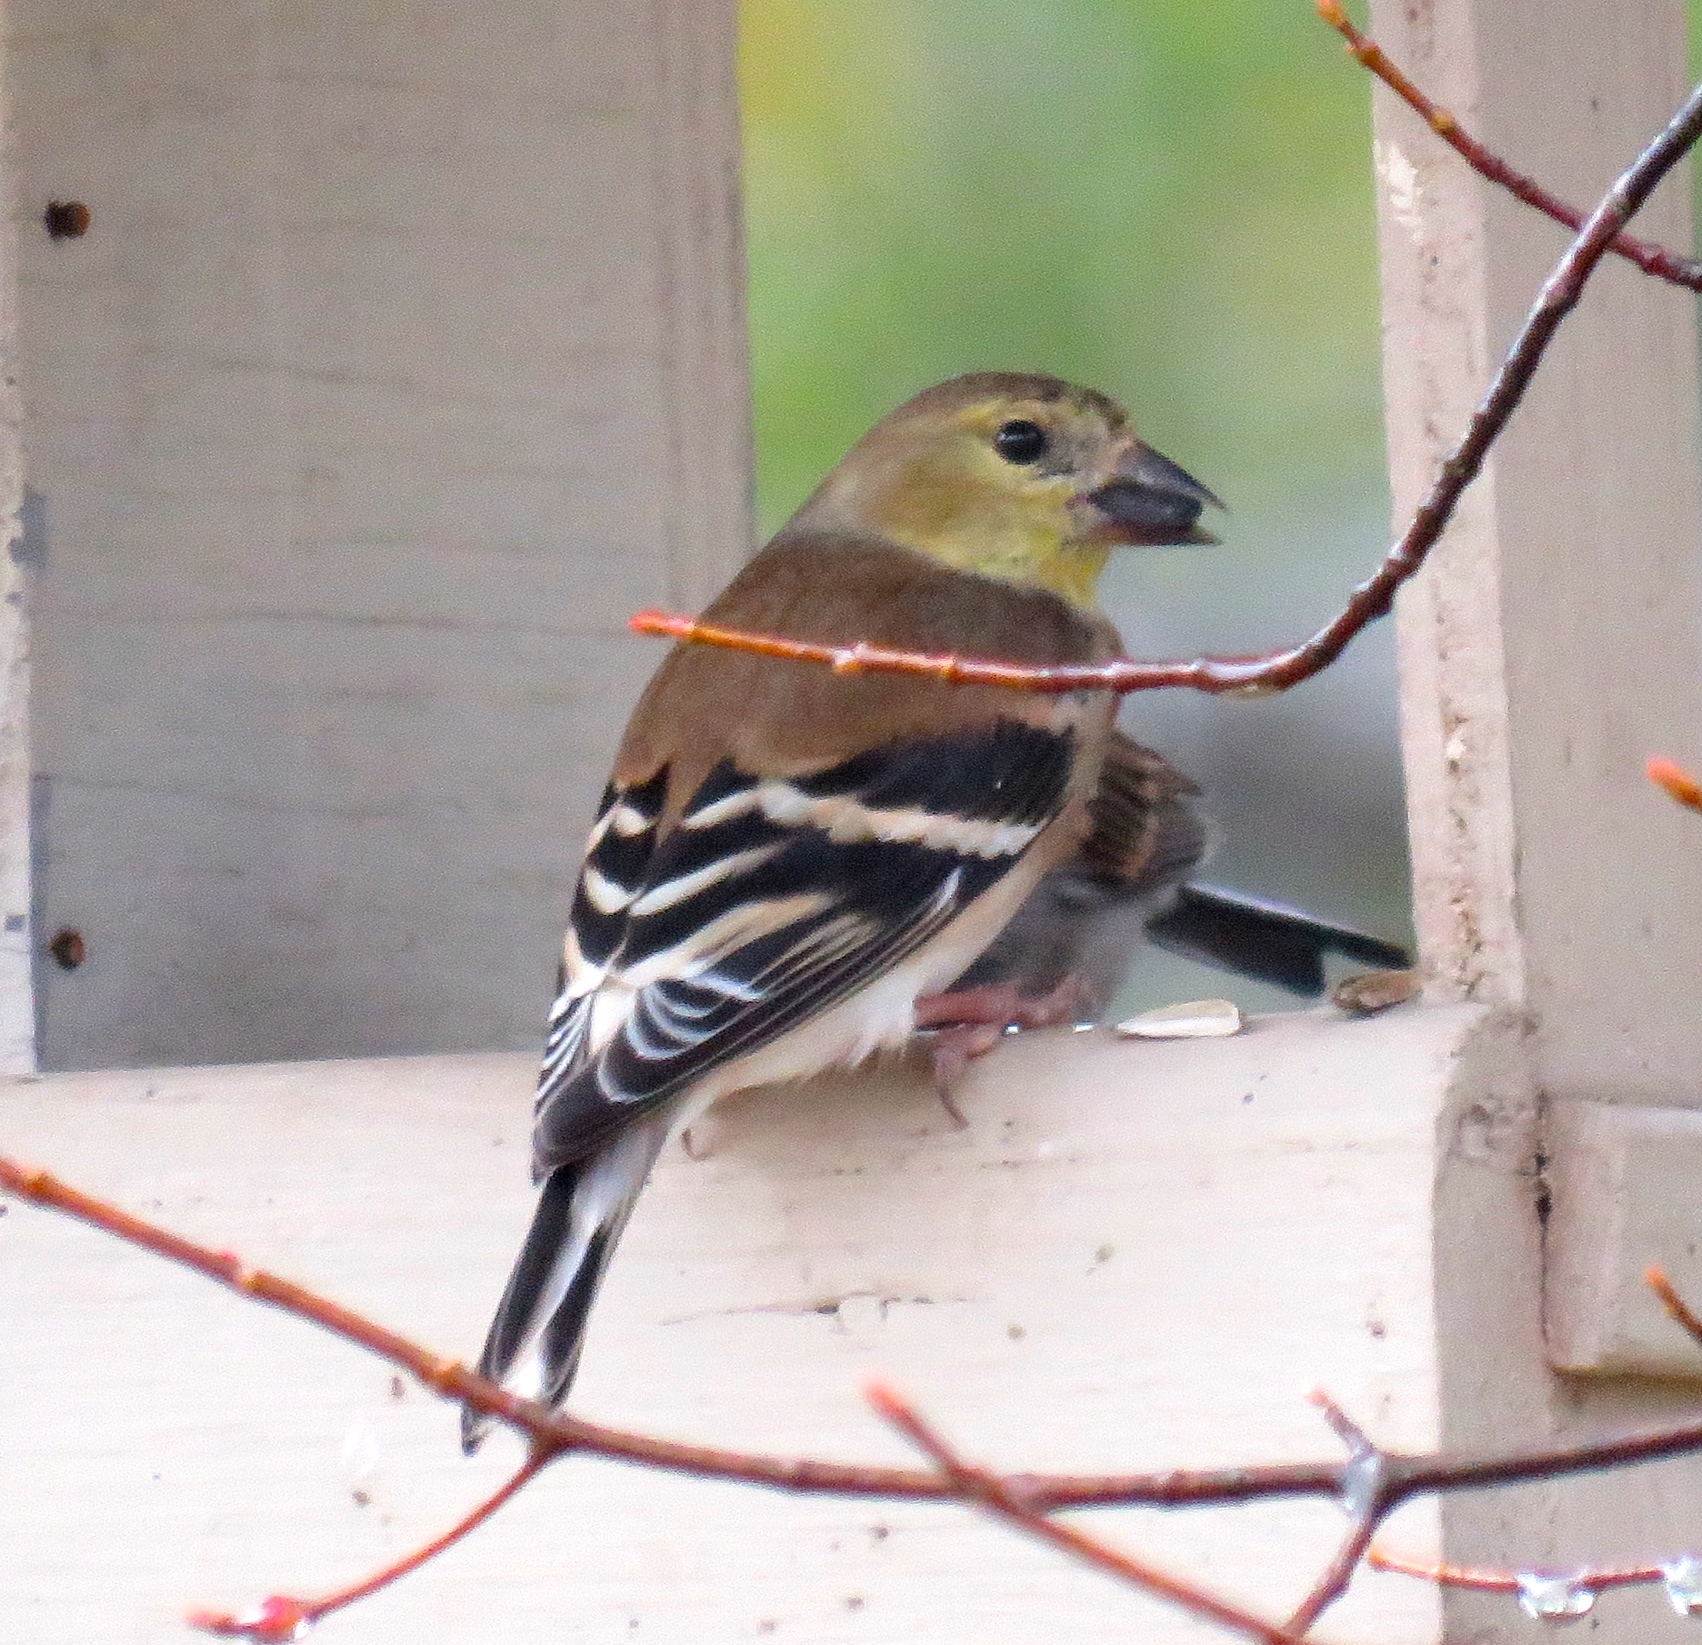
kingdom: Animalia
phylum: Chordata
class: Aves
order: Passeriformes
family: Fringillidae
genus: Spinus
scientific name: Spinus tristis
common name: American goldfinch
